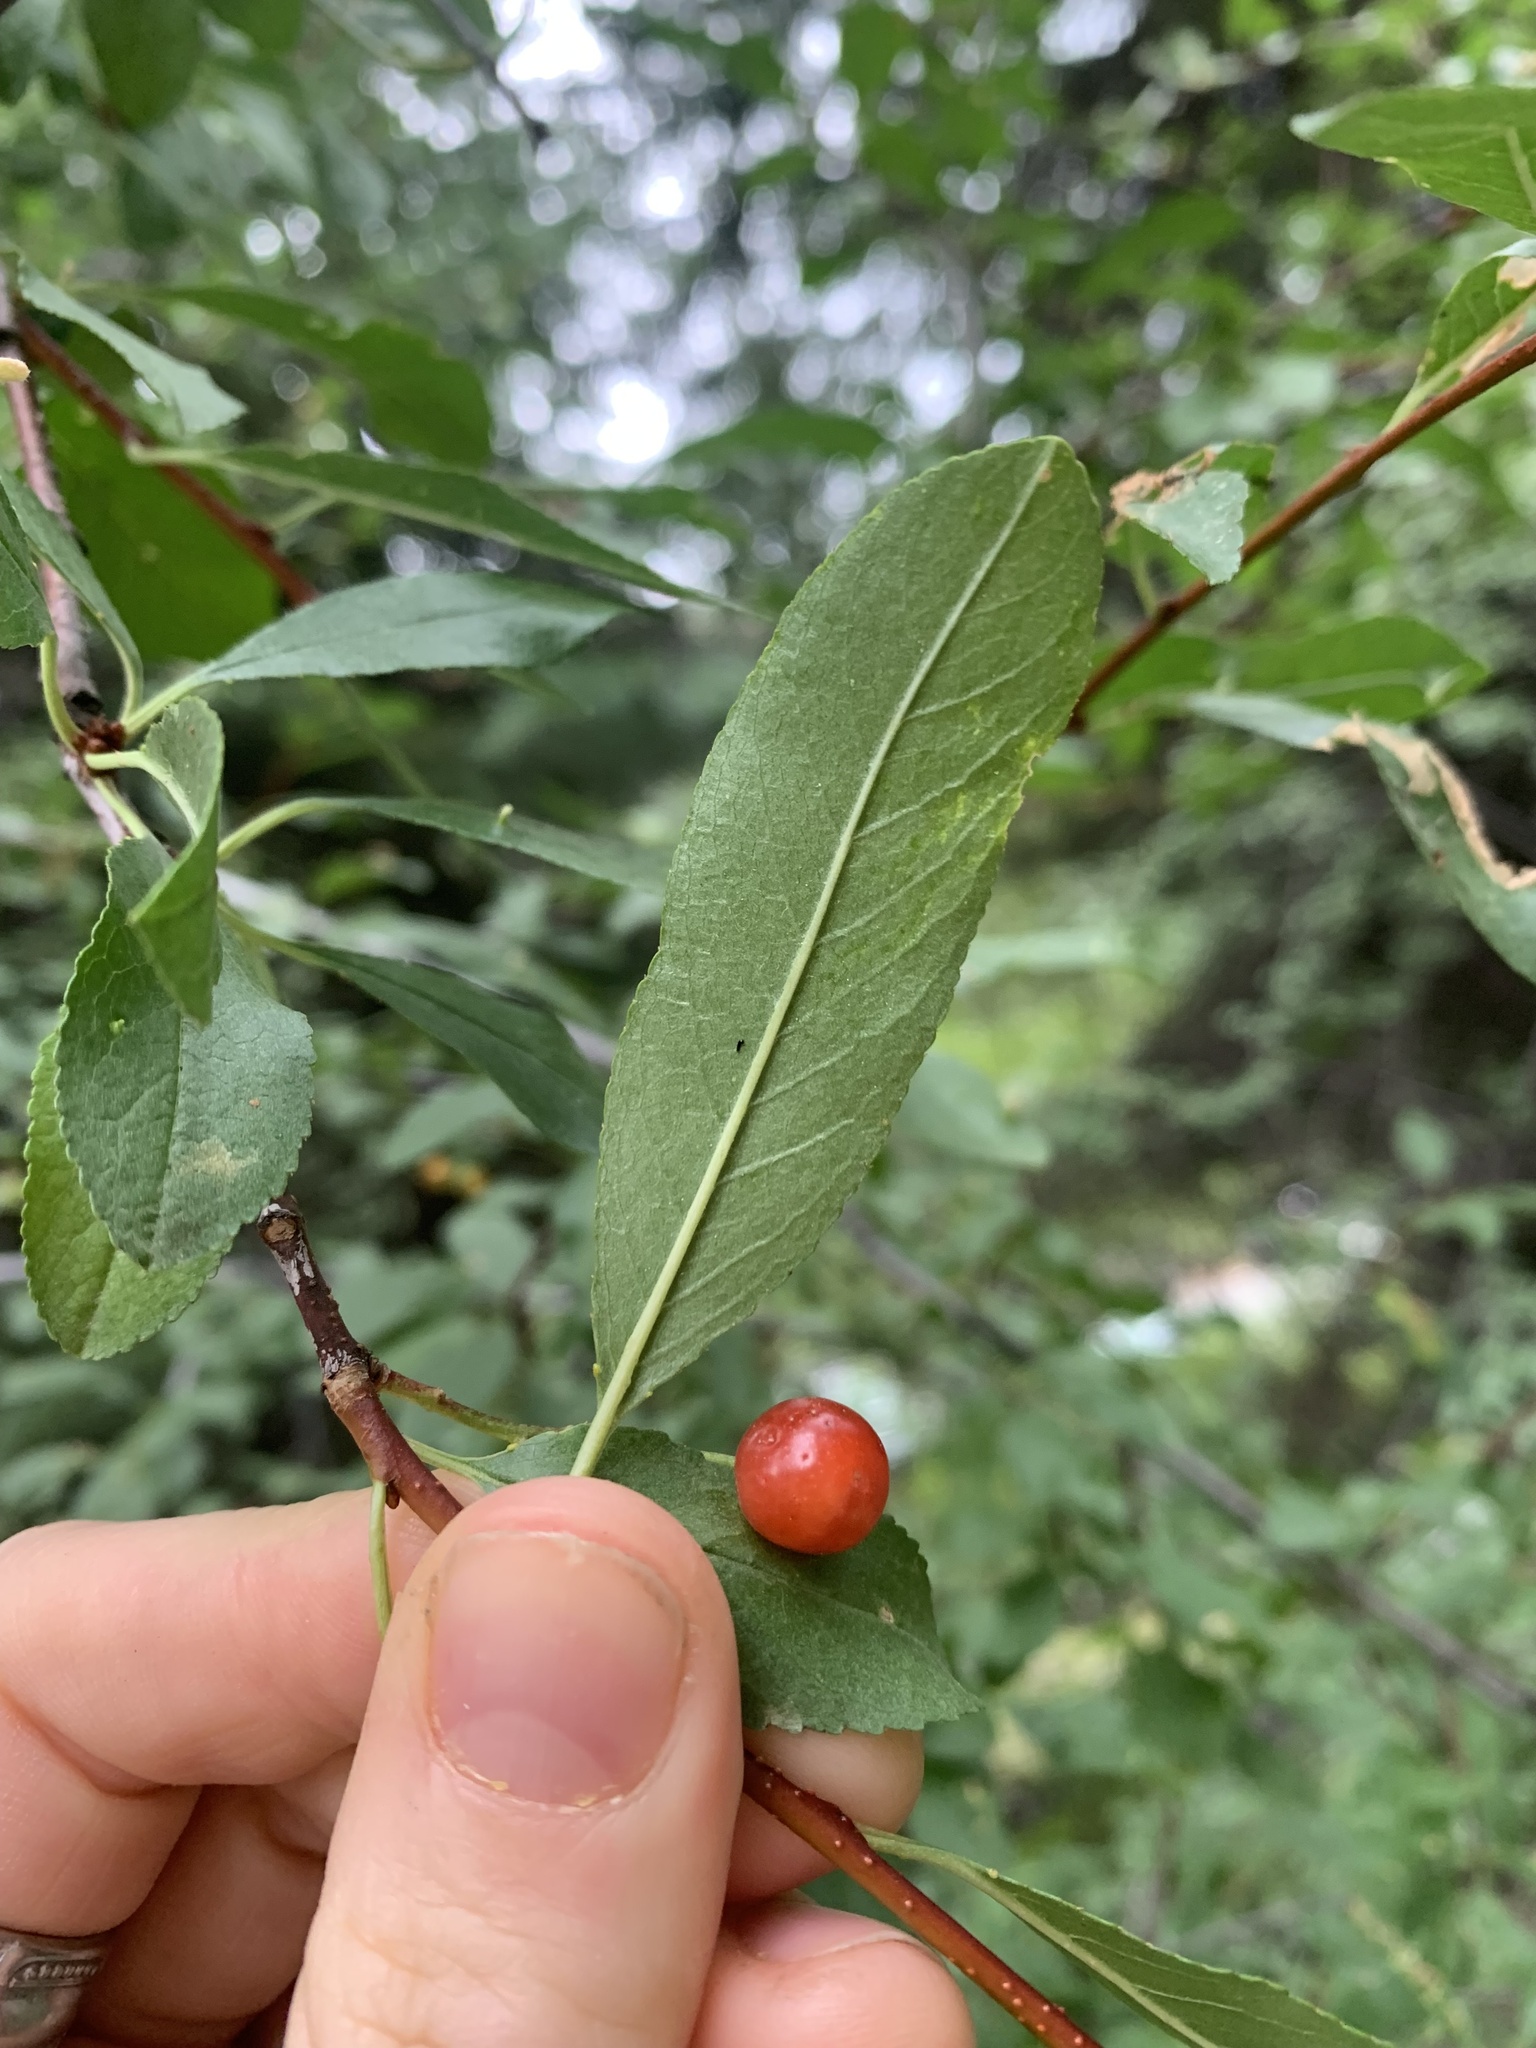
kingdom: Plantae
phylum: Tracheophyta
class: Magnoliopsida
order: Rosales
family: Rosaceae
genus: Prunus
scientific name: Prunus emarginata
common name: Bitter cherry
